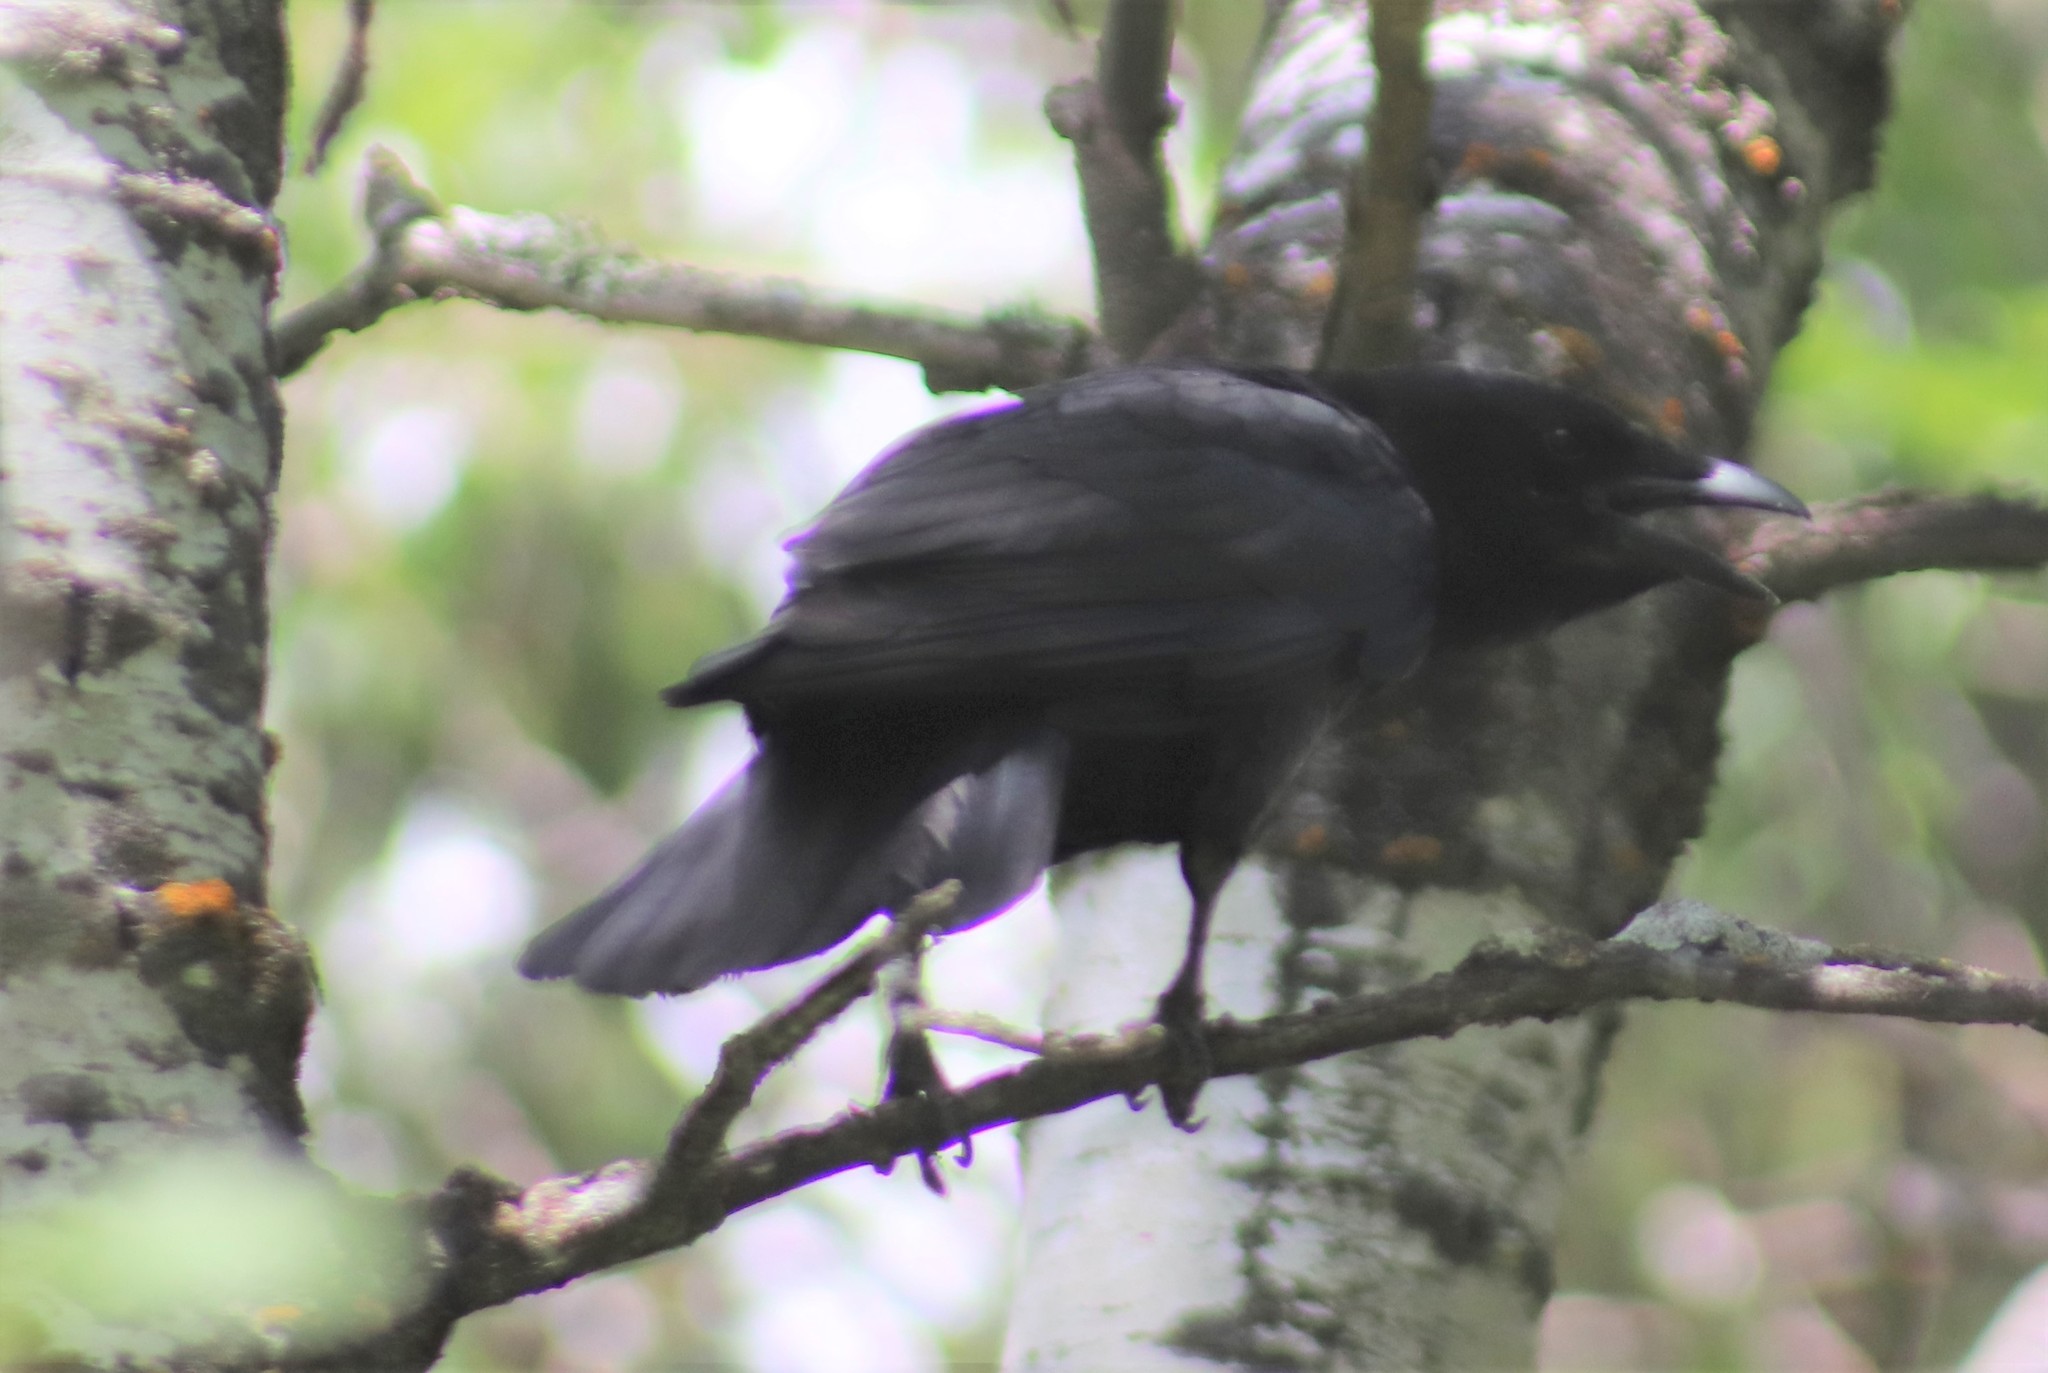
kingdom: Animalia
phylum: Chordata
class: Aves
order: Passeriformes
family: Corvidae
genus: Corvus
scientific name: Corvus brachyrhynchos
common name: American crow
